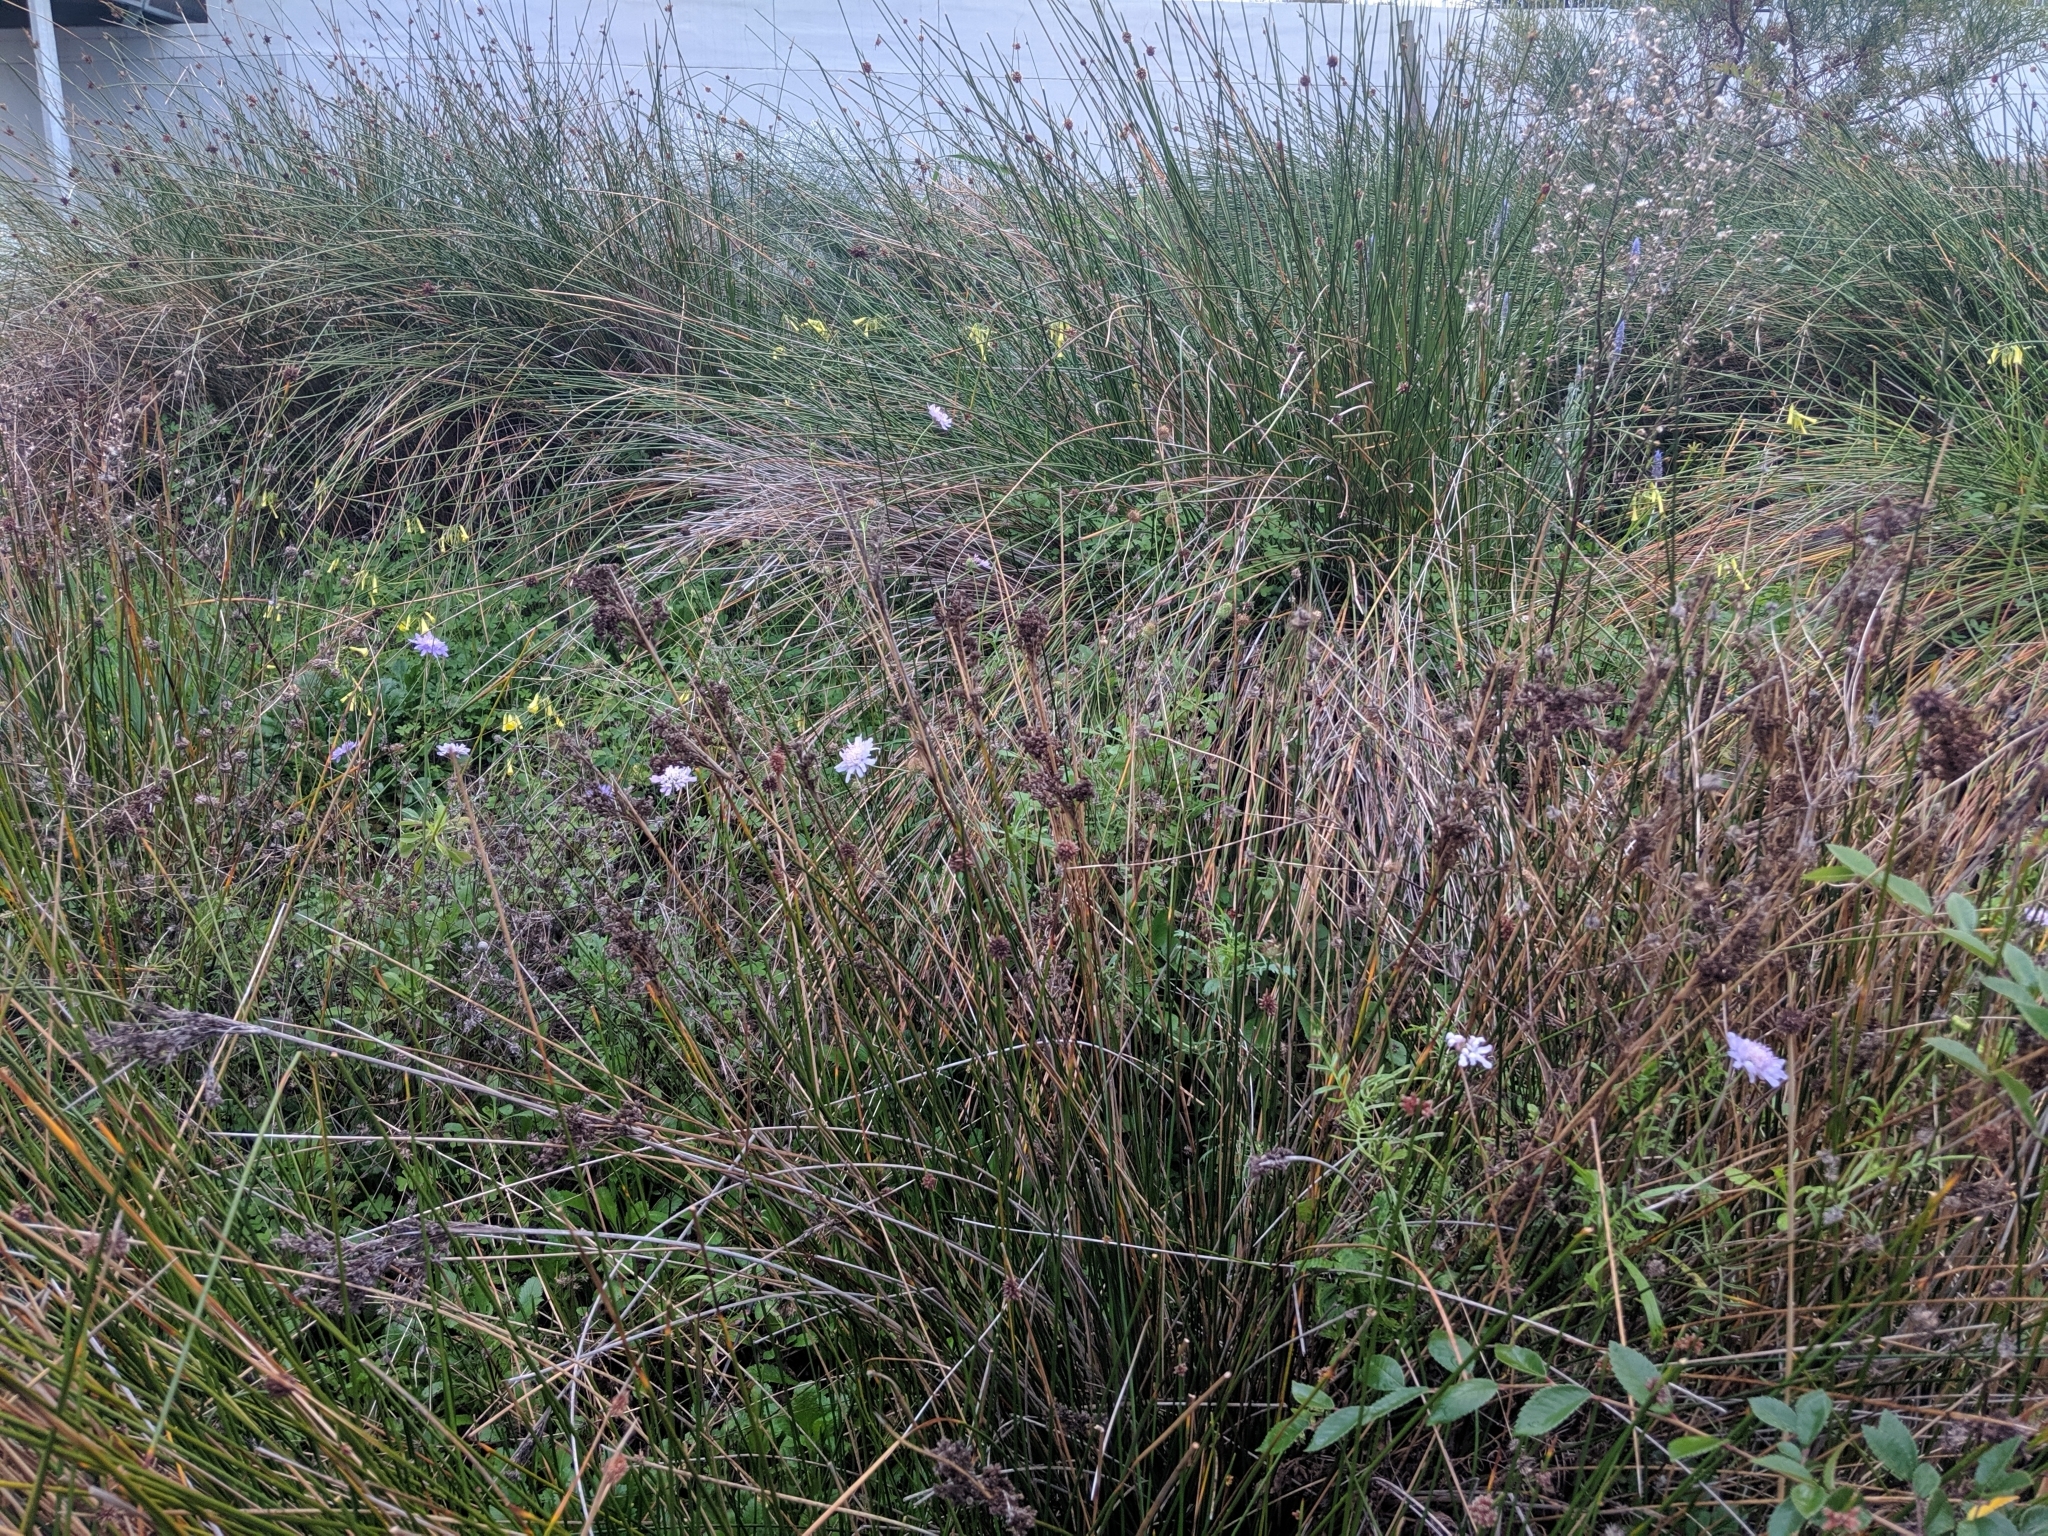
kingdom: Plantae
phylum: Tracheophyta
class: Magnoliopsida
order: Dipsacales
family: Caprifoliaceae
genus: Sixalix
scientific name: Sixalix atropurpurea
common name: Sweet scabious
